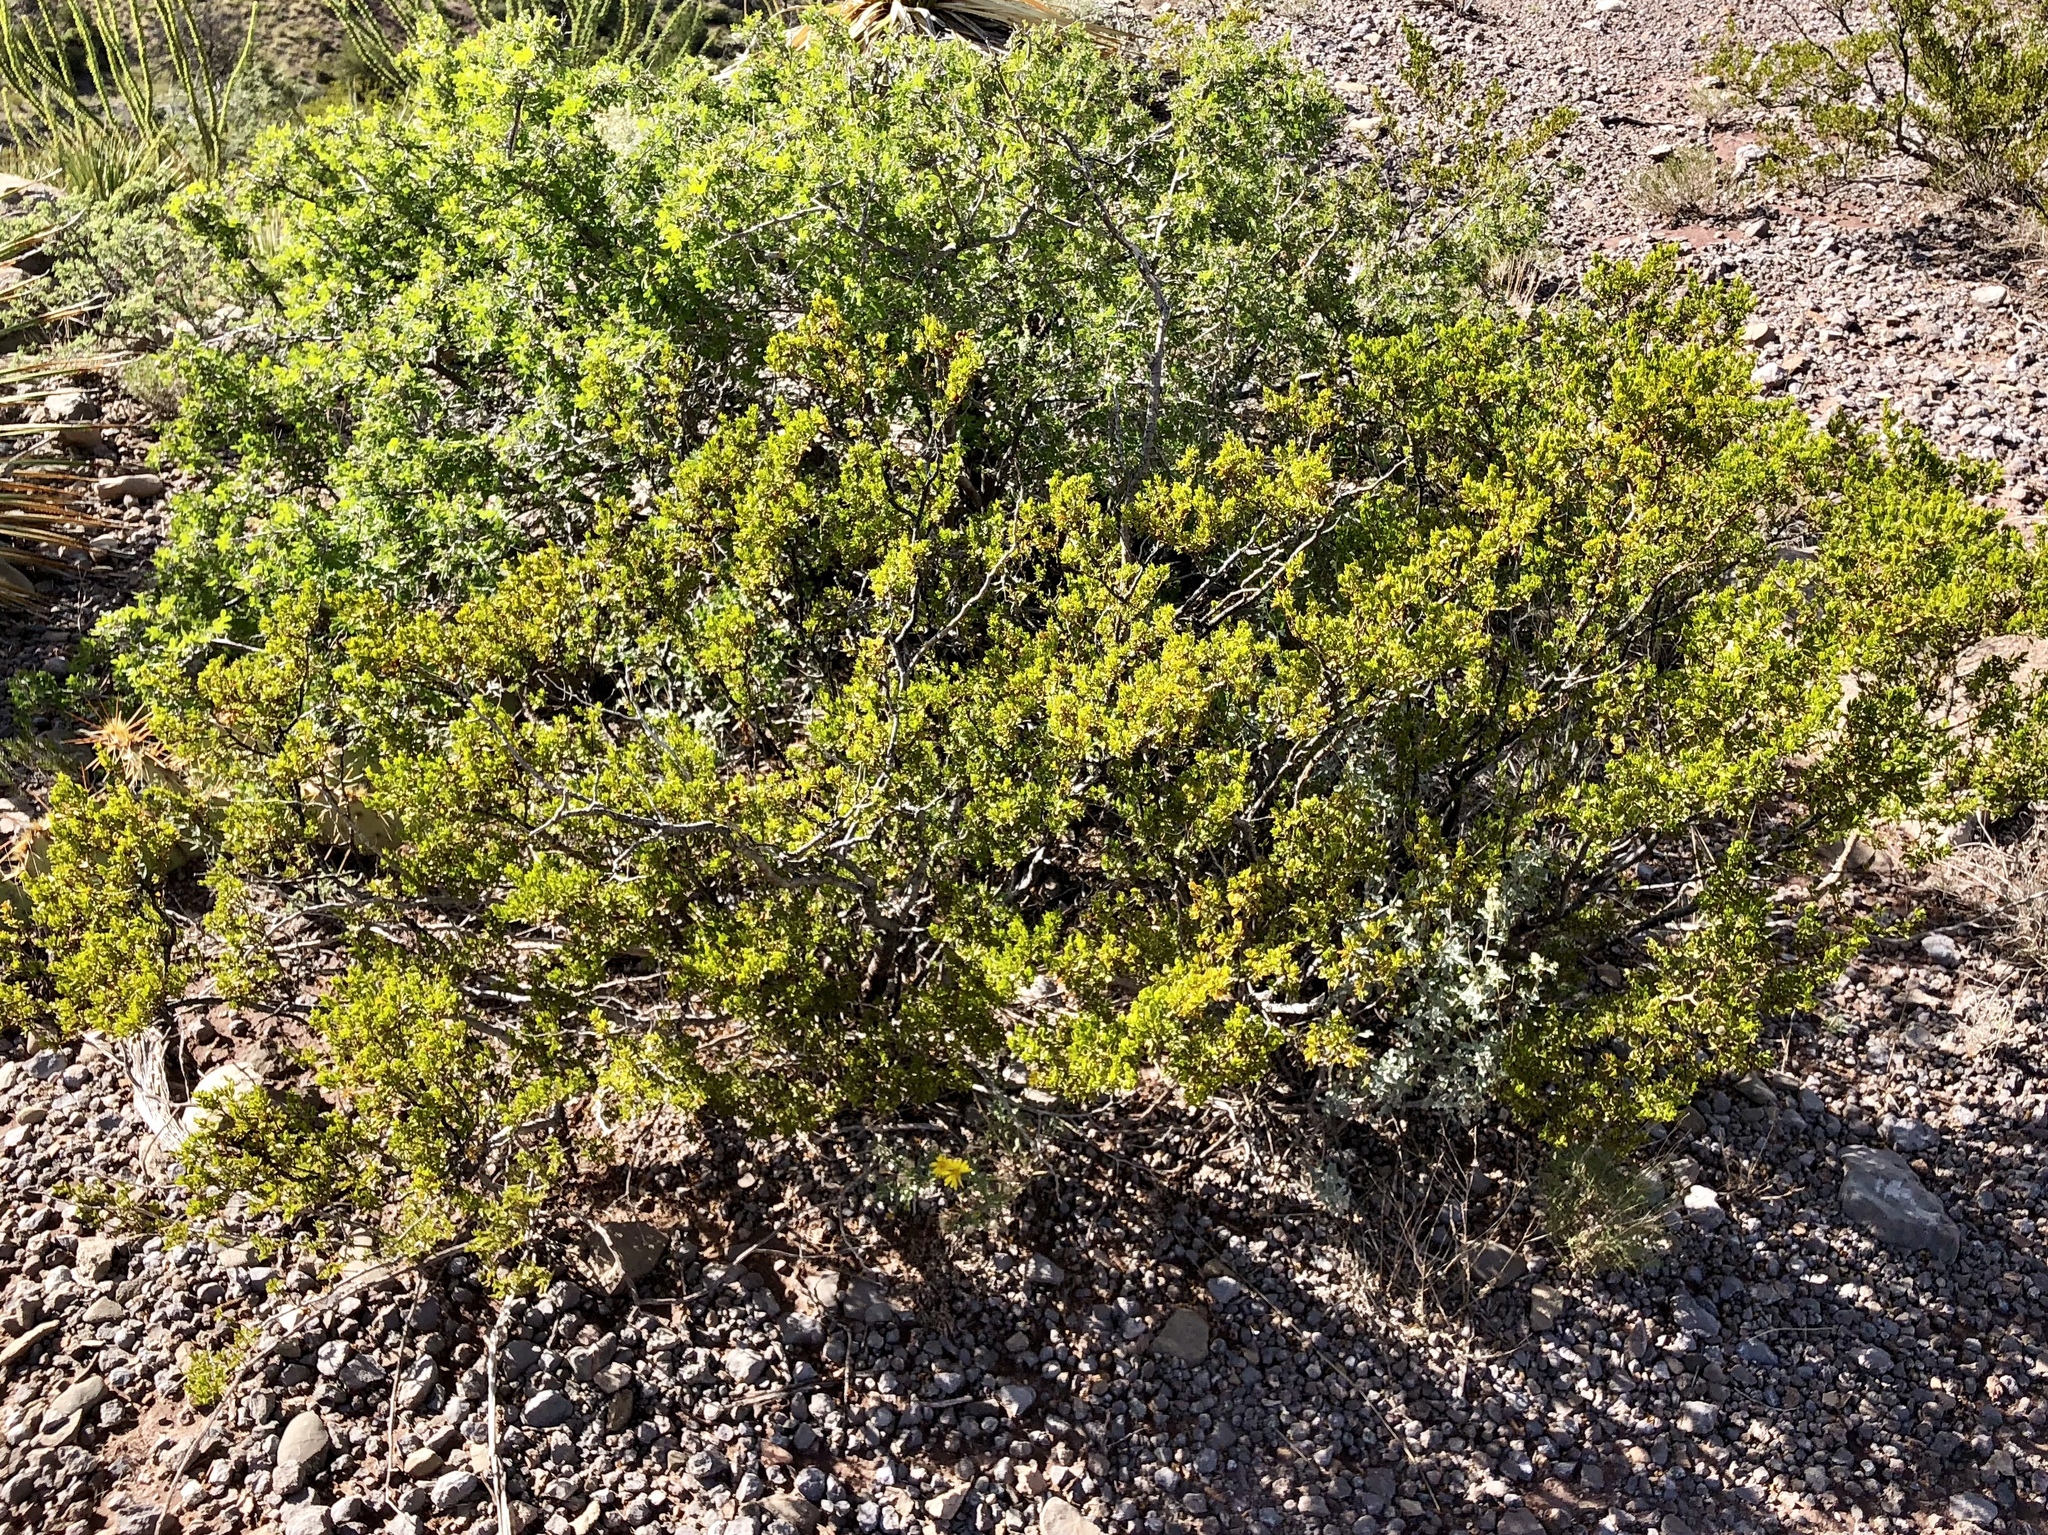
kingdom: Plantae
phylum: Tracheophyta
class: Magnoliopsida
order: Zygophyllales
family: Zygophyllaceae
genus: Larrea
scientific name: Larrea tridentata
